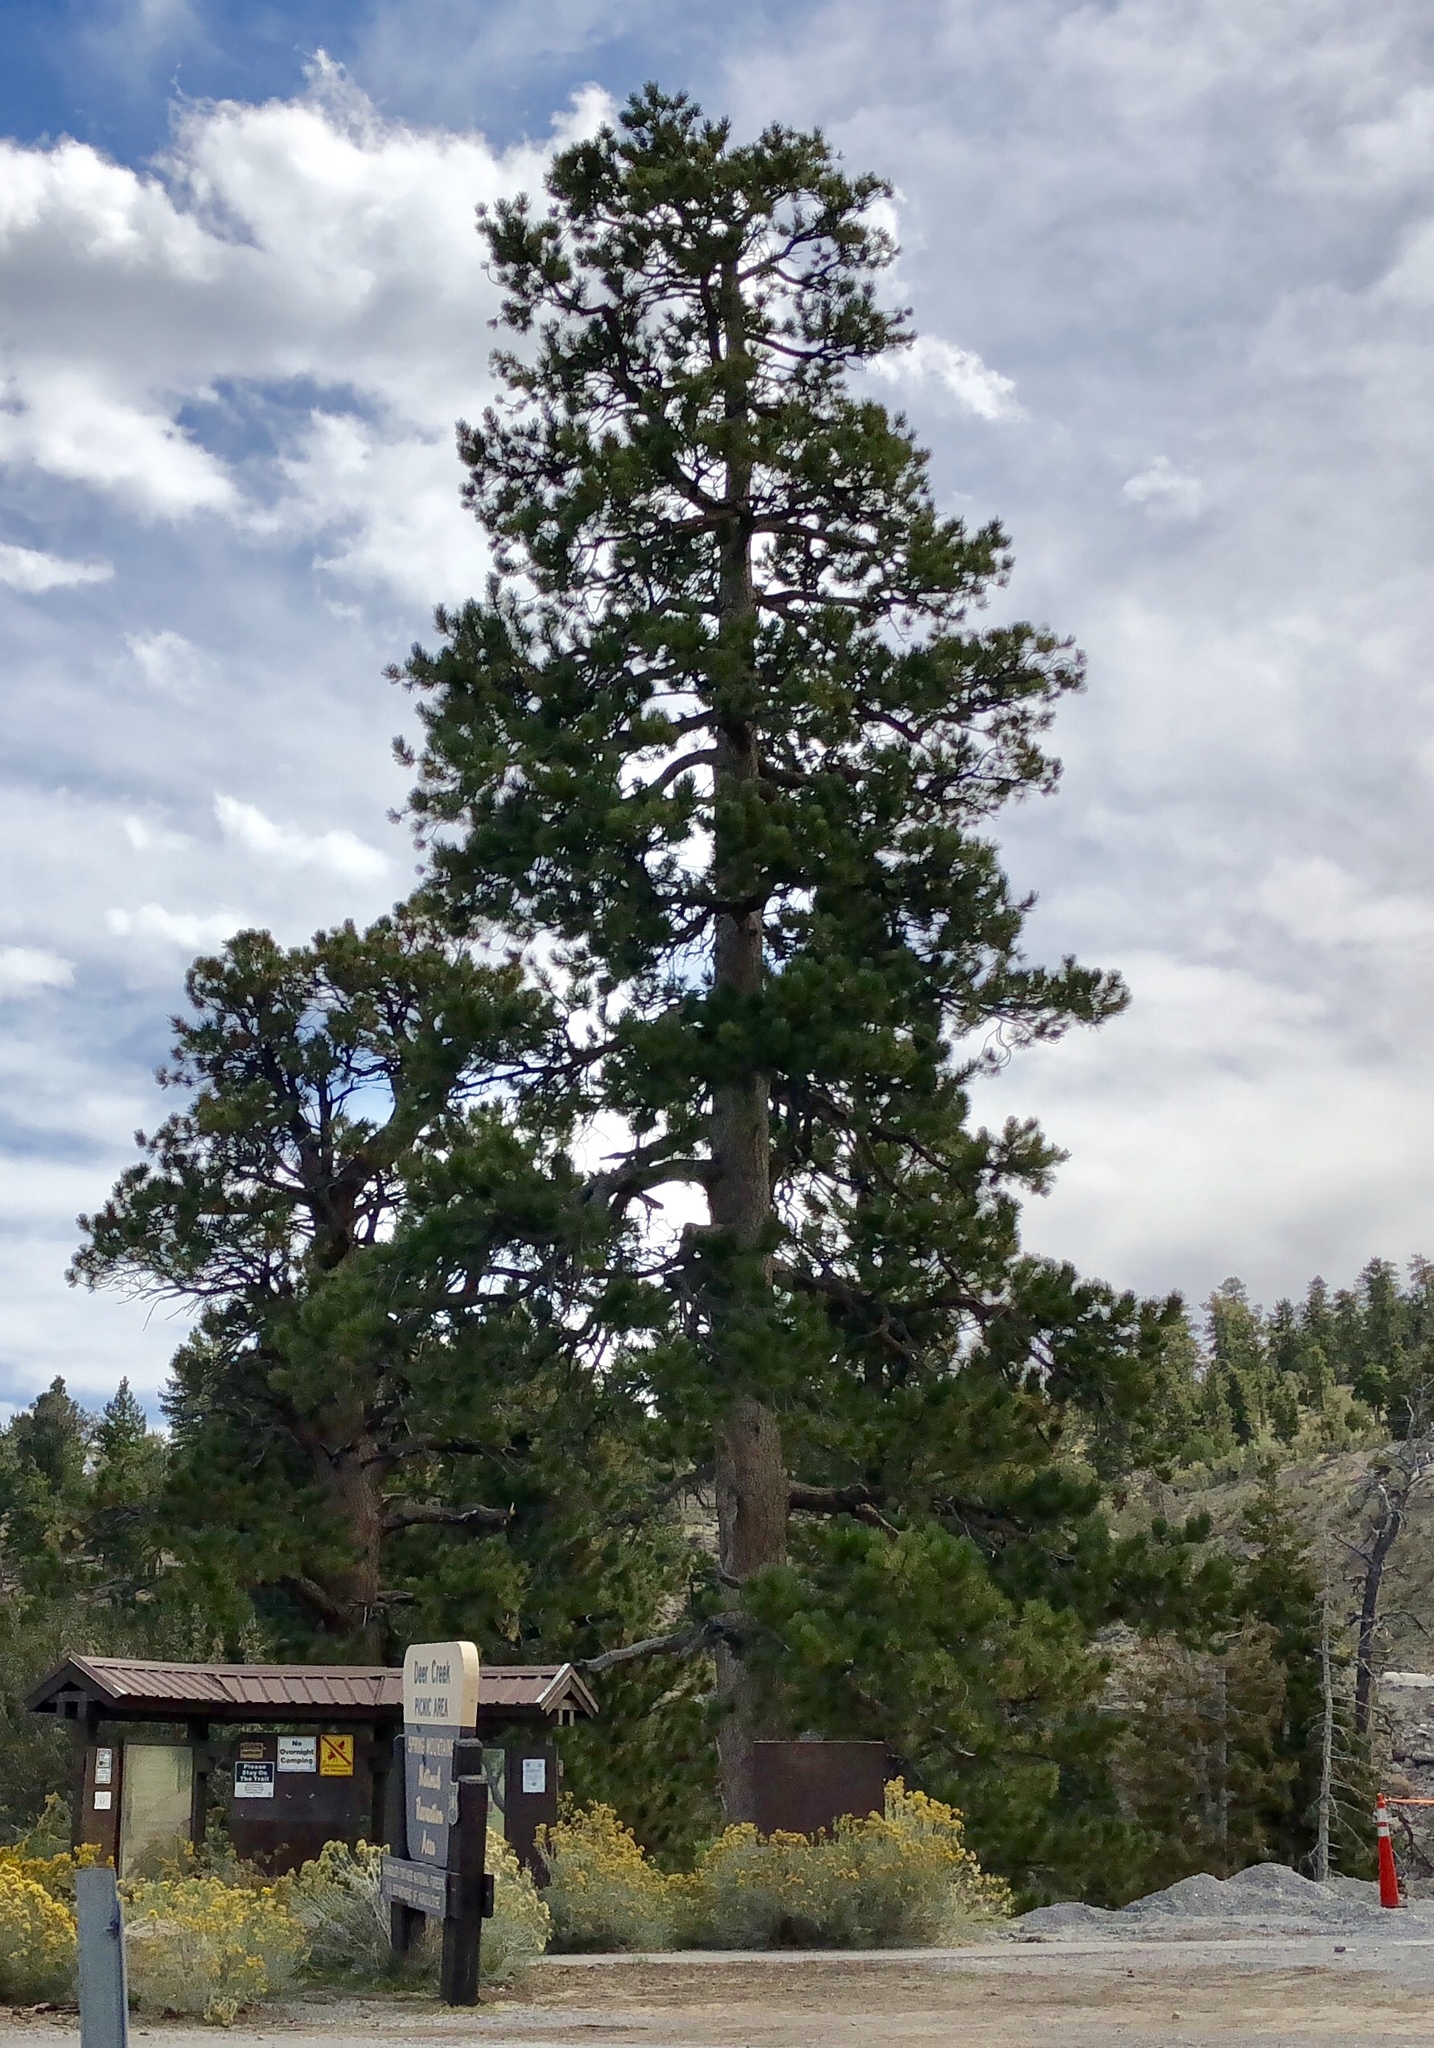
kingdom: Plantae
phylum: Tracheophyta
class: Pinopsida
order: Pinales
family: Pinaceae
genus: Pinus
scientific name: Pinus ponderosa
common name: Western yellow-pine
